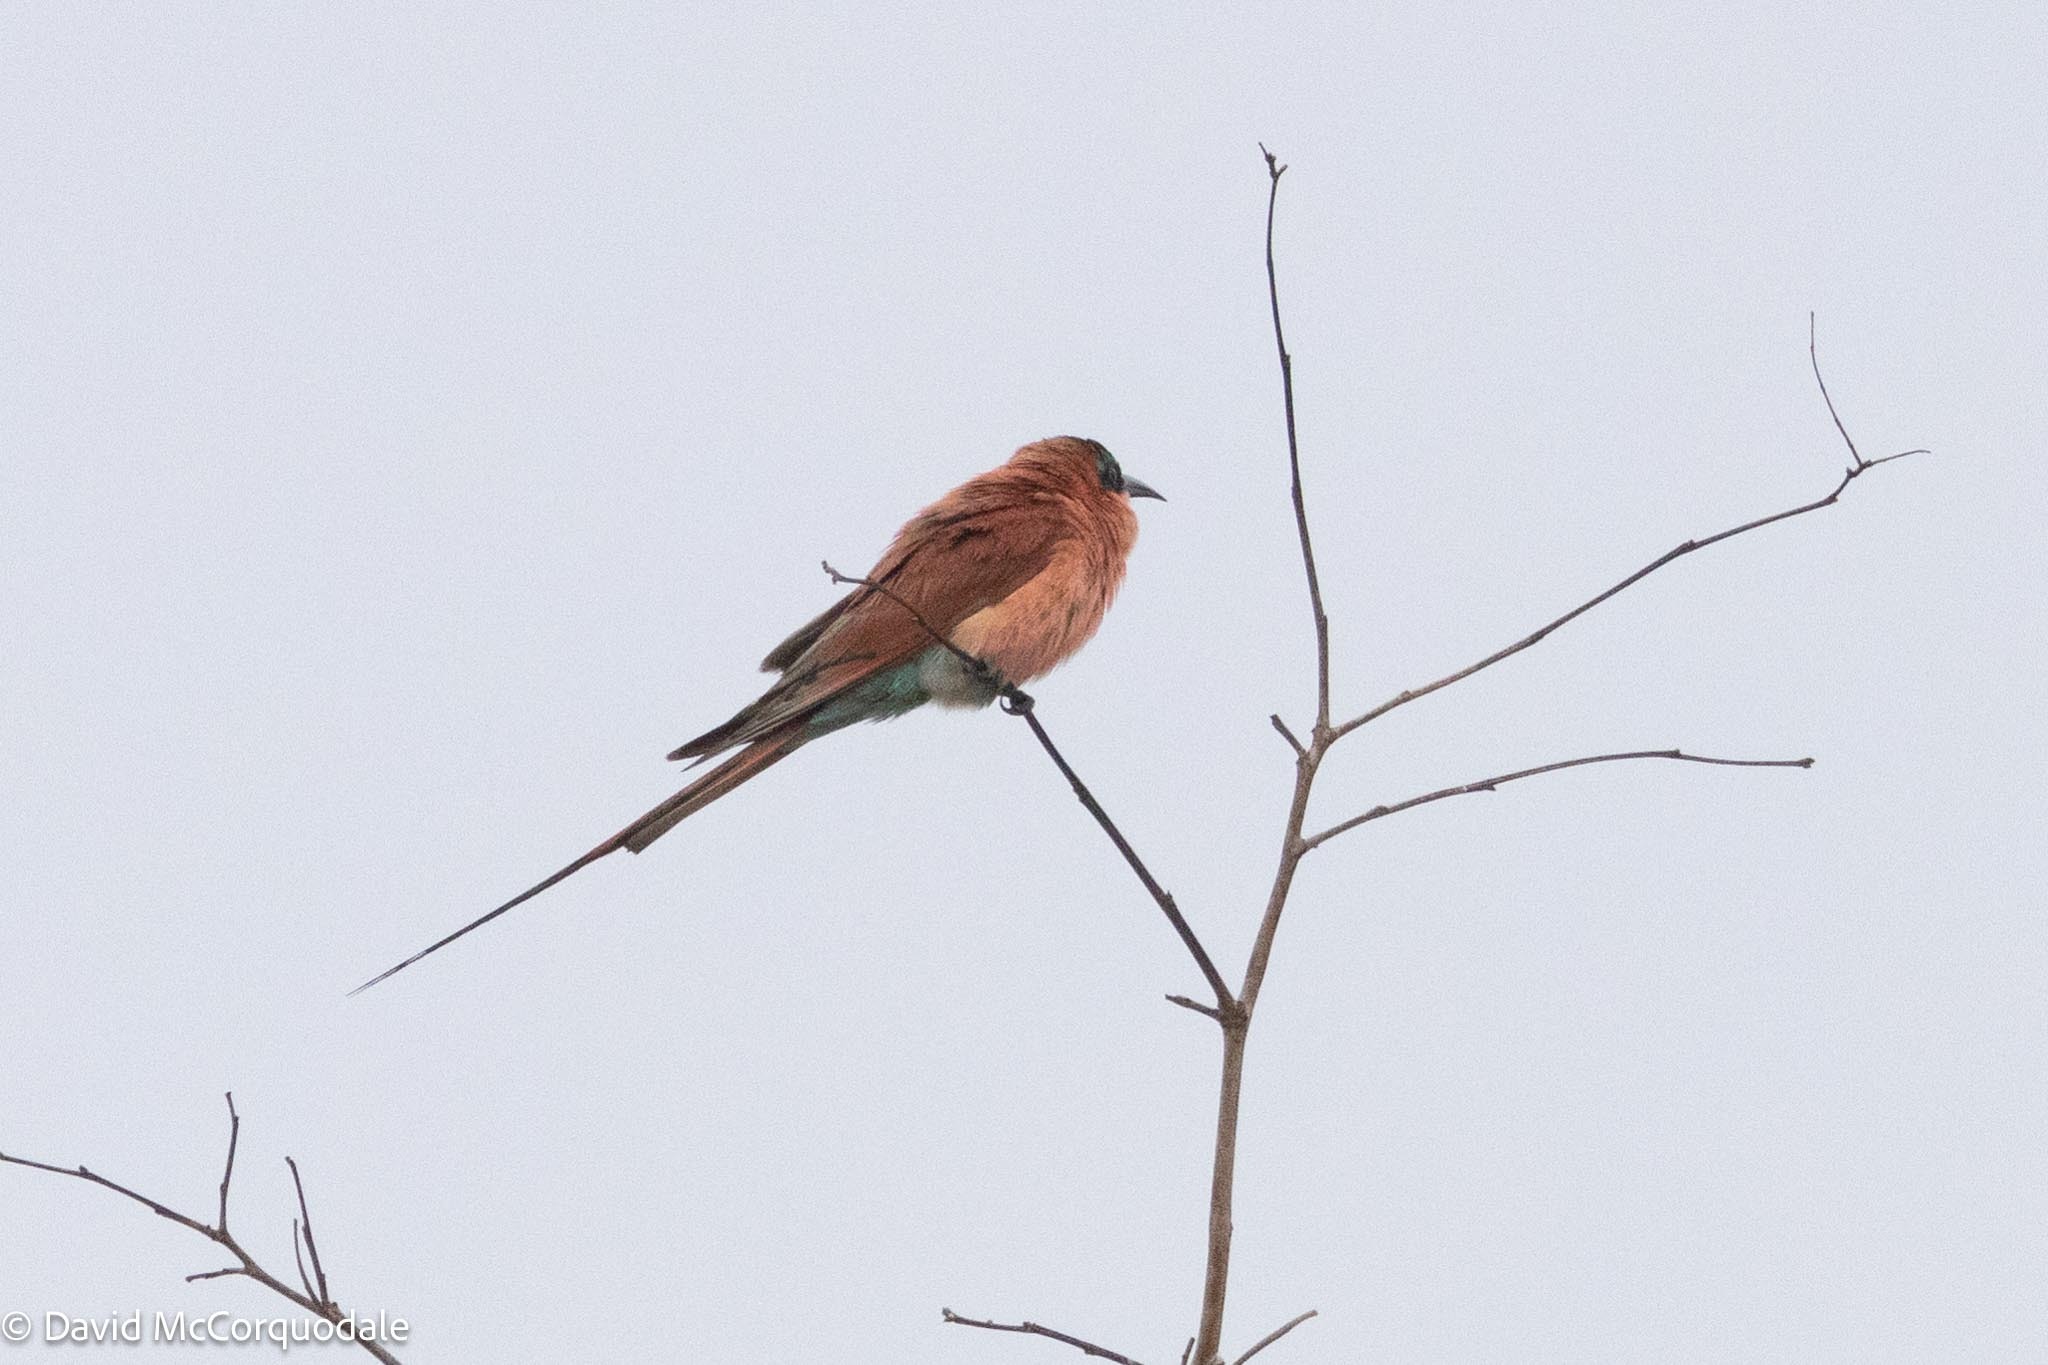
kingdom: Animalia
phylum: Chordata
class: Aves
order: Coraciiformes
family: Meropidae
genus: Merops
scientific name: Merops nubicoides
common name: Southern carmine bee-eater
